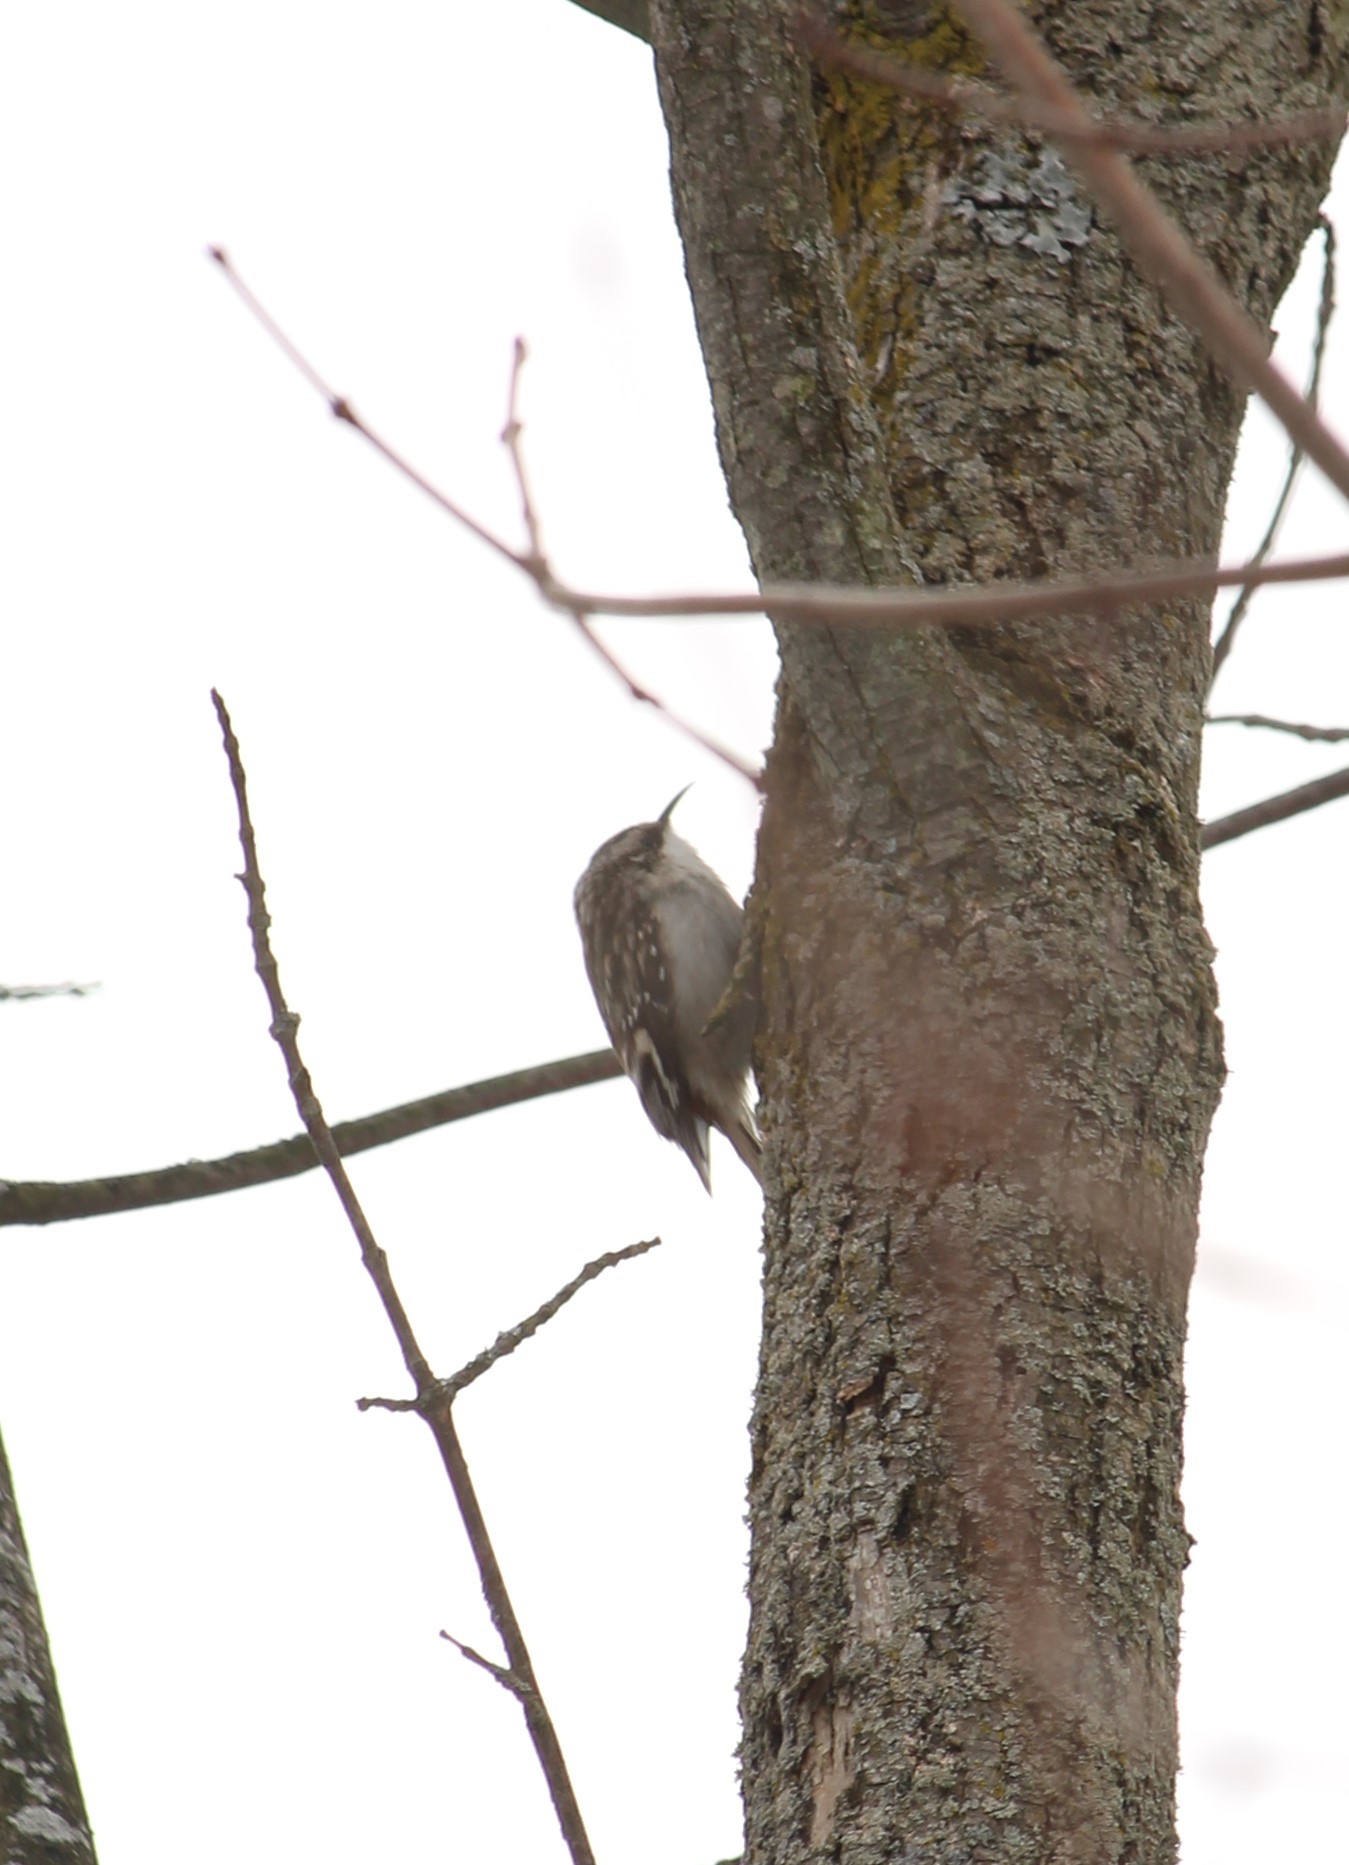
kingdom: Animalia
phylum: Chordata
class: Aves
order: Passeriformes
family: Certhiidae
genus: Certhia
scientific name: Certhia americana
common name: Brown creeper
